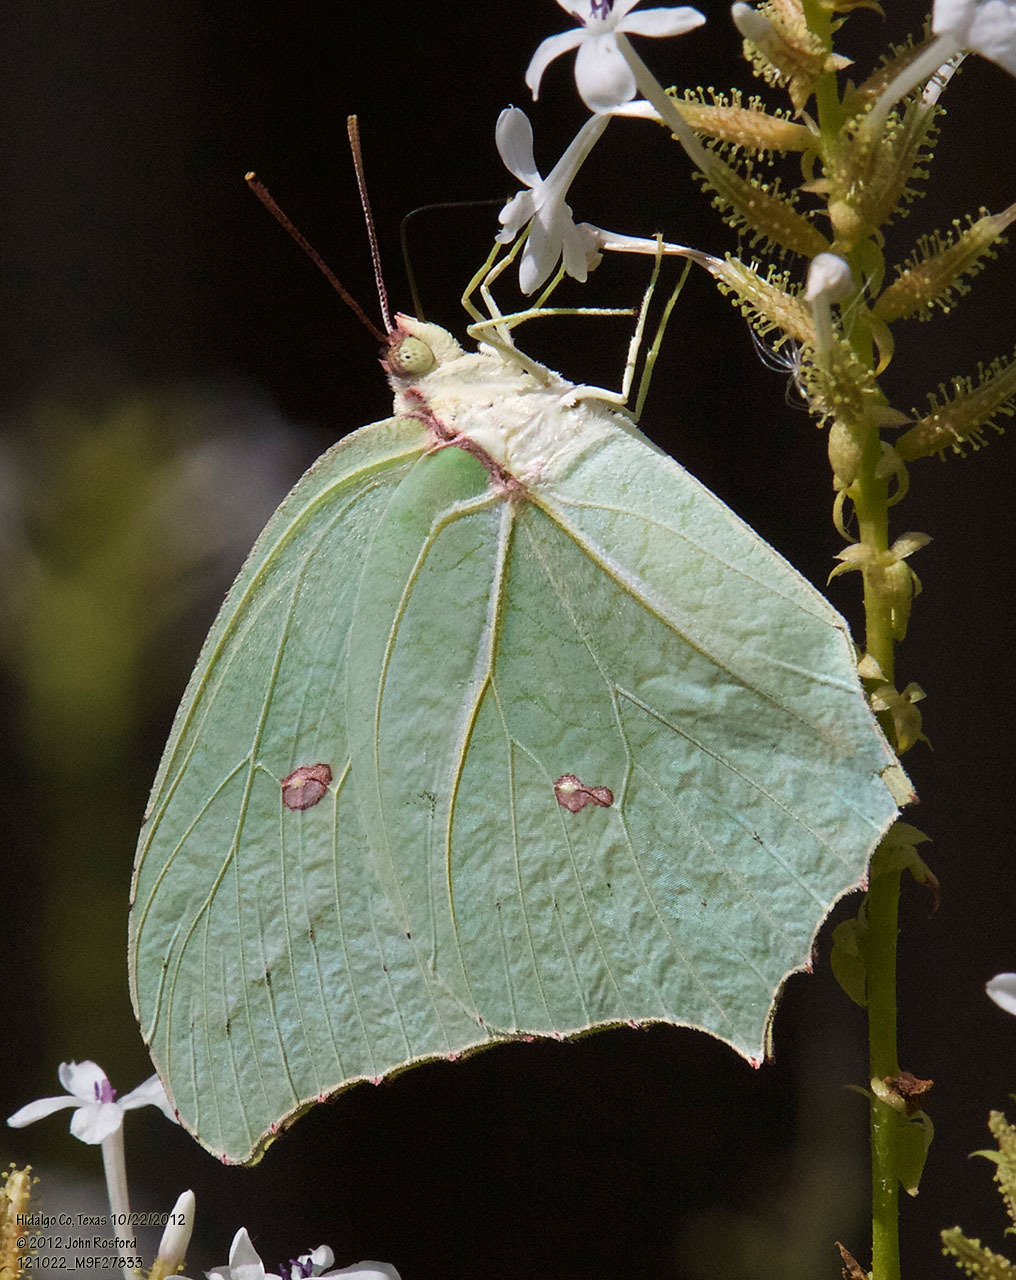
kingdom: Animalia
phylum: Arthropoda
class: Insecta
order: Lepidoptera
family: Pieridae
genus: Anteos
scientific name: Anteos maerula
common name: Angled sulphur
